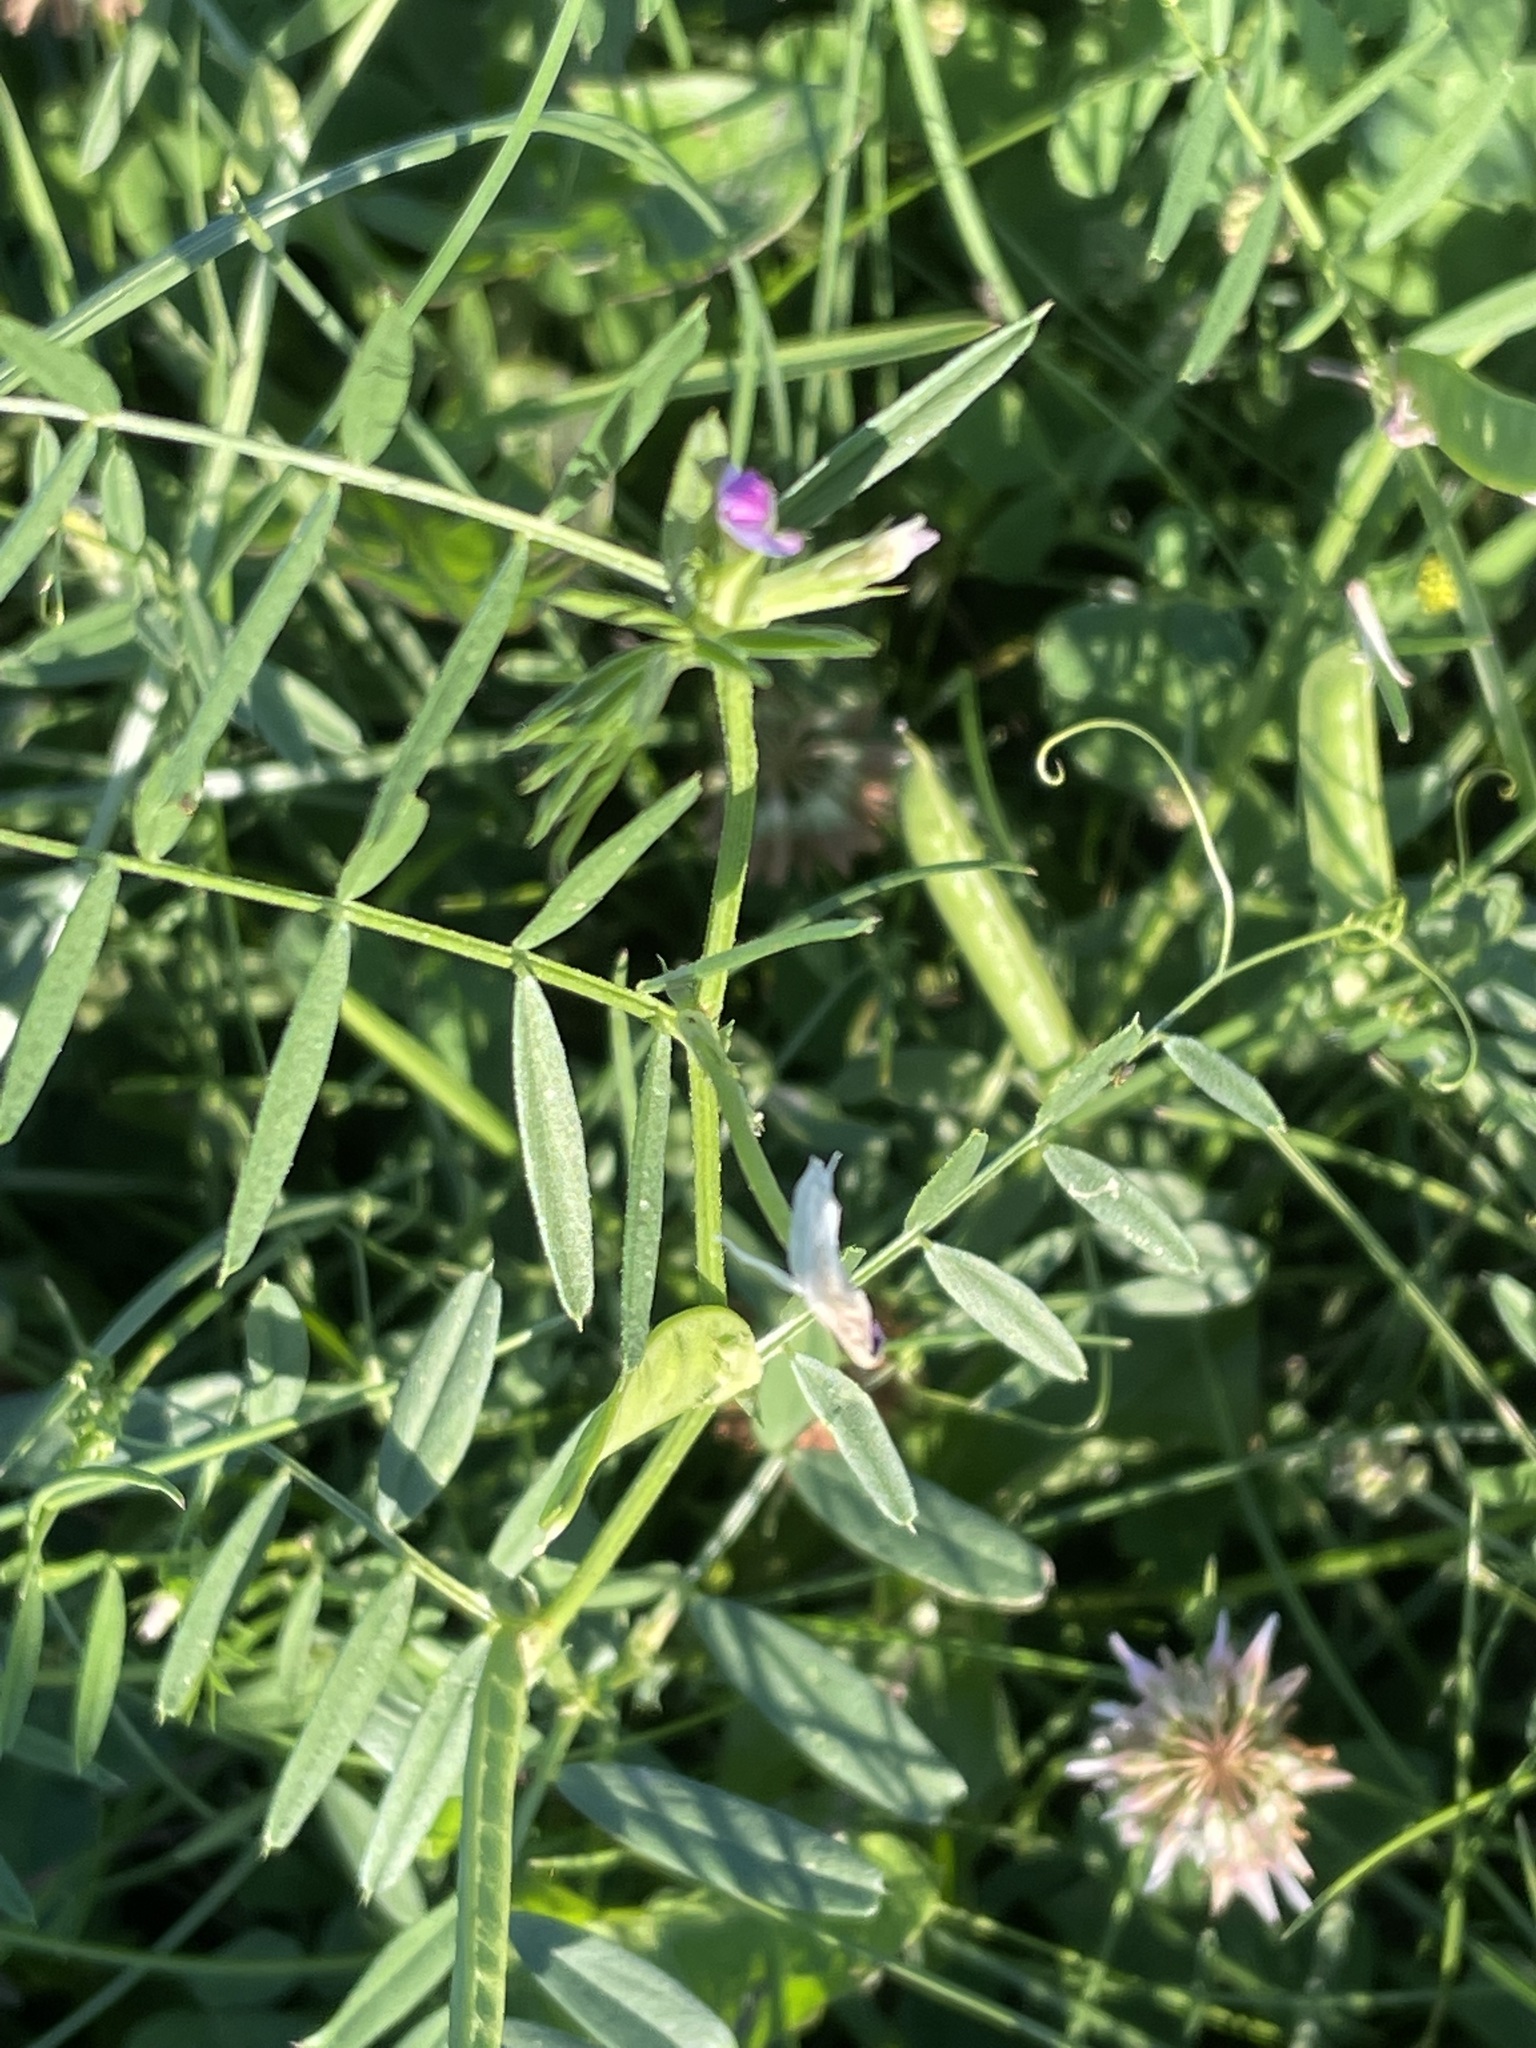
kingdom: Plantae
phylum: Tracheophyta
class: Magnoliopsida
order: Fabales
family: Fabaceae
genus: Vicia
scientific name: Vicia sativa
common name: Garden vetch
